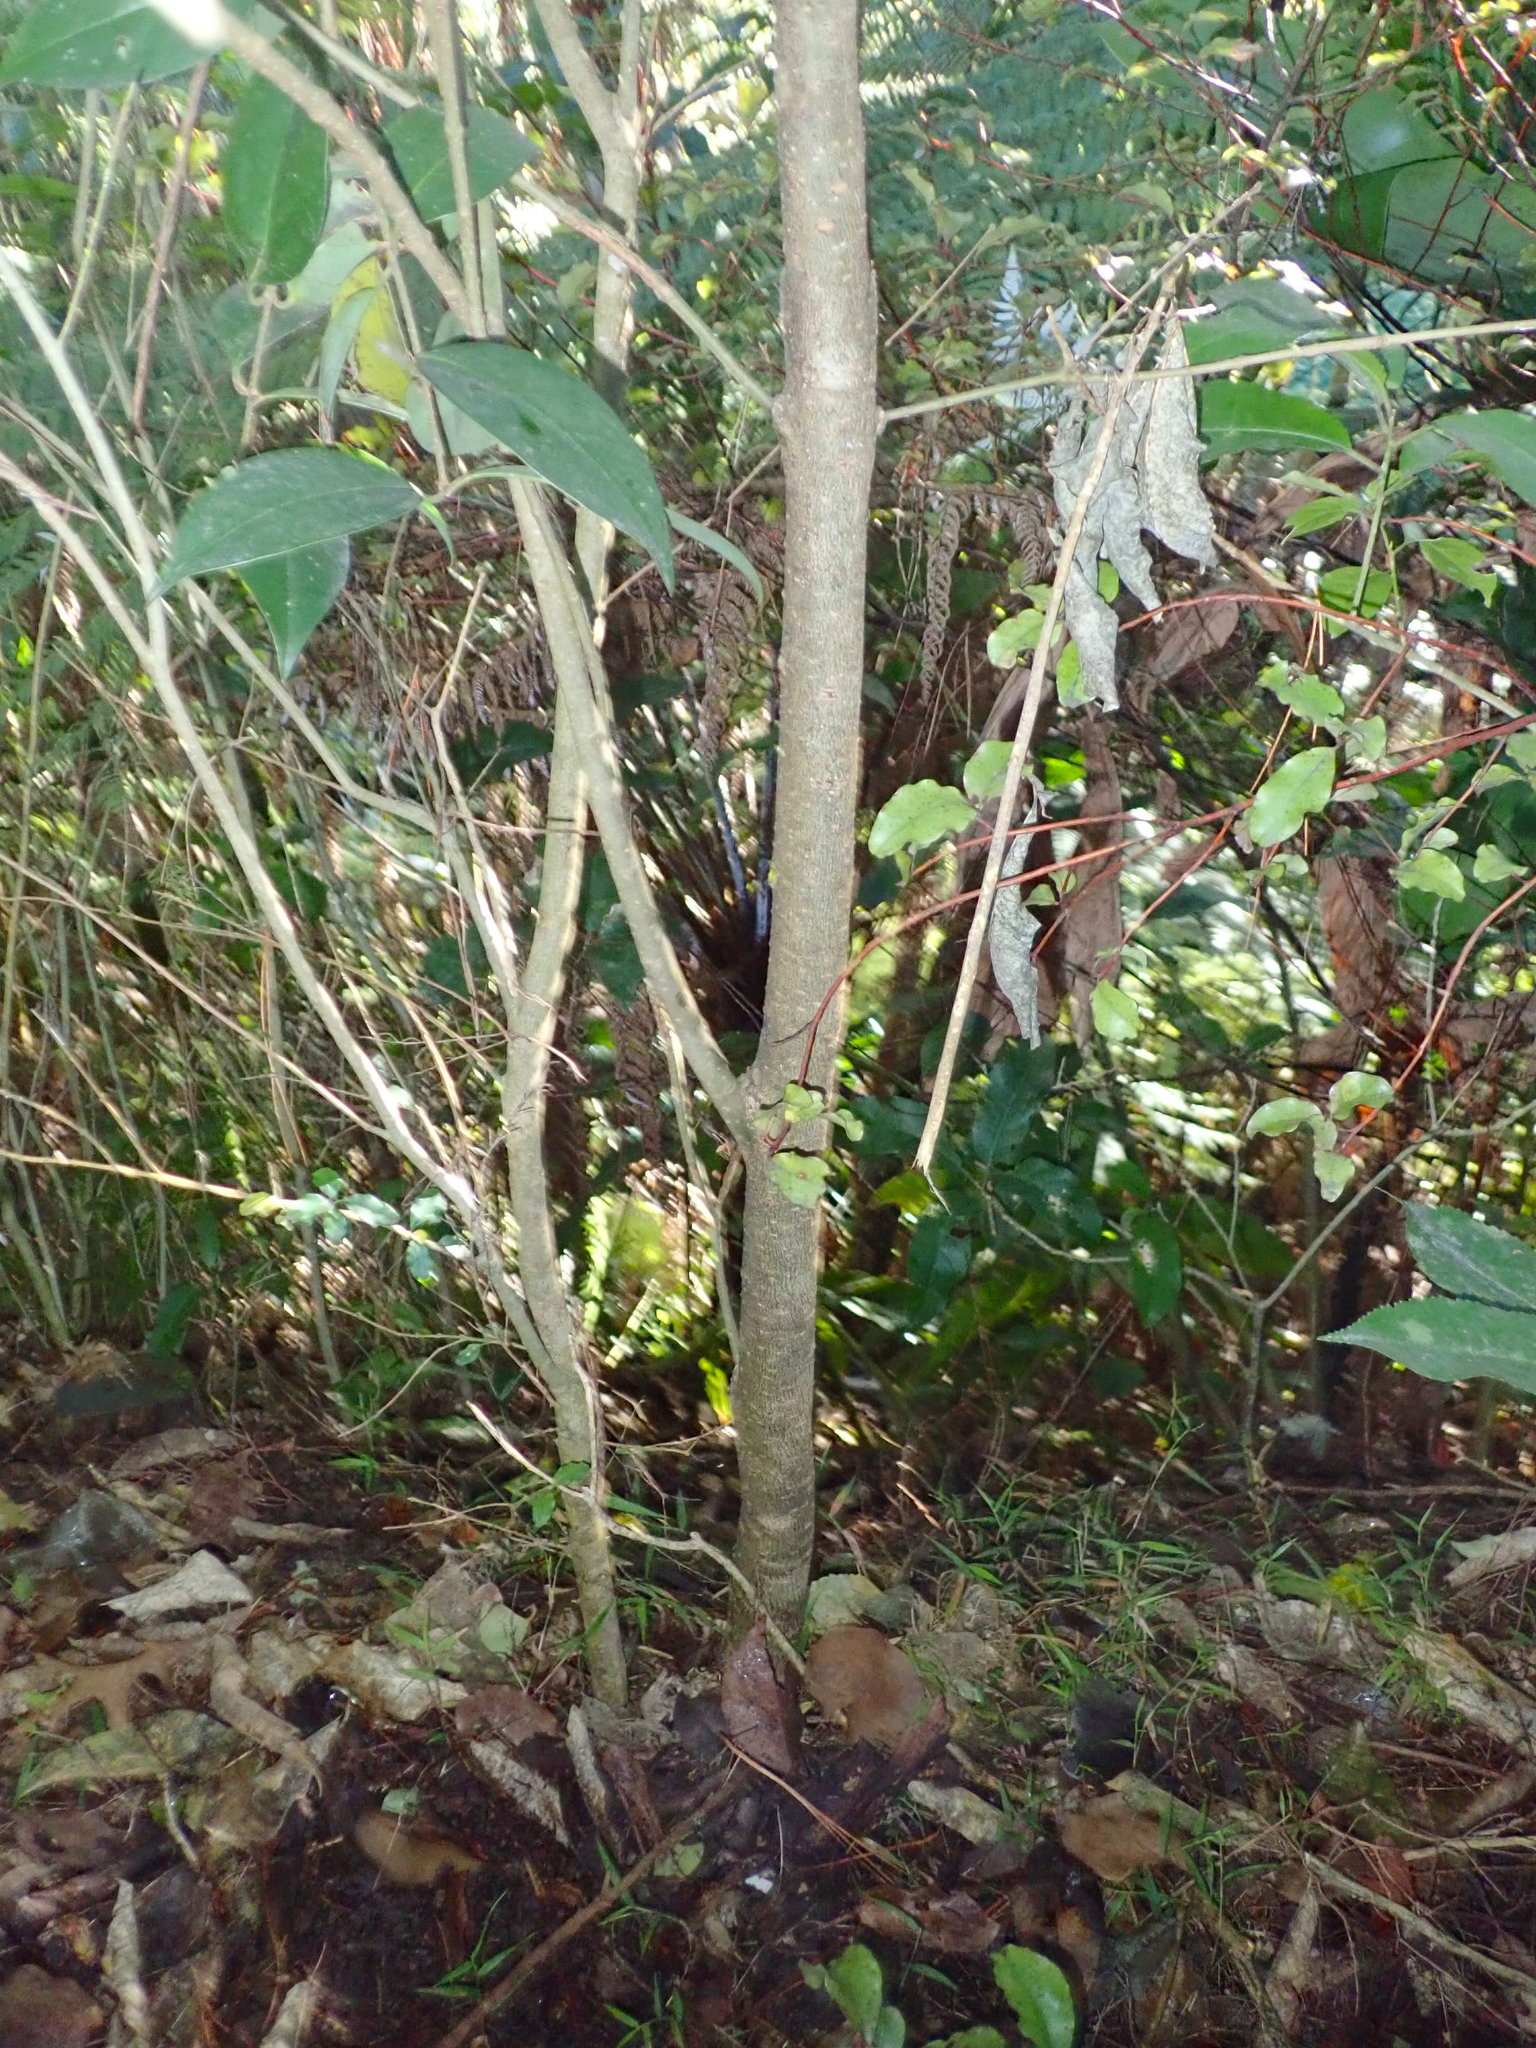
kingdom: Plantae
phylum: Tracheophyta
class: Magnoliopsida
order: Lamiales
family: Oleaceae
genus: Ligustrum
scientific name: Ligustrum lucidum
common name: Glossy privet
